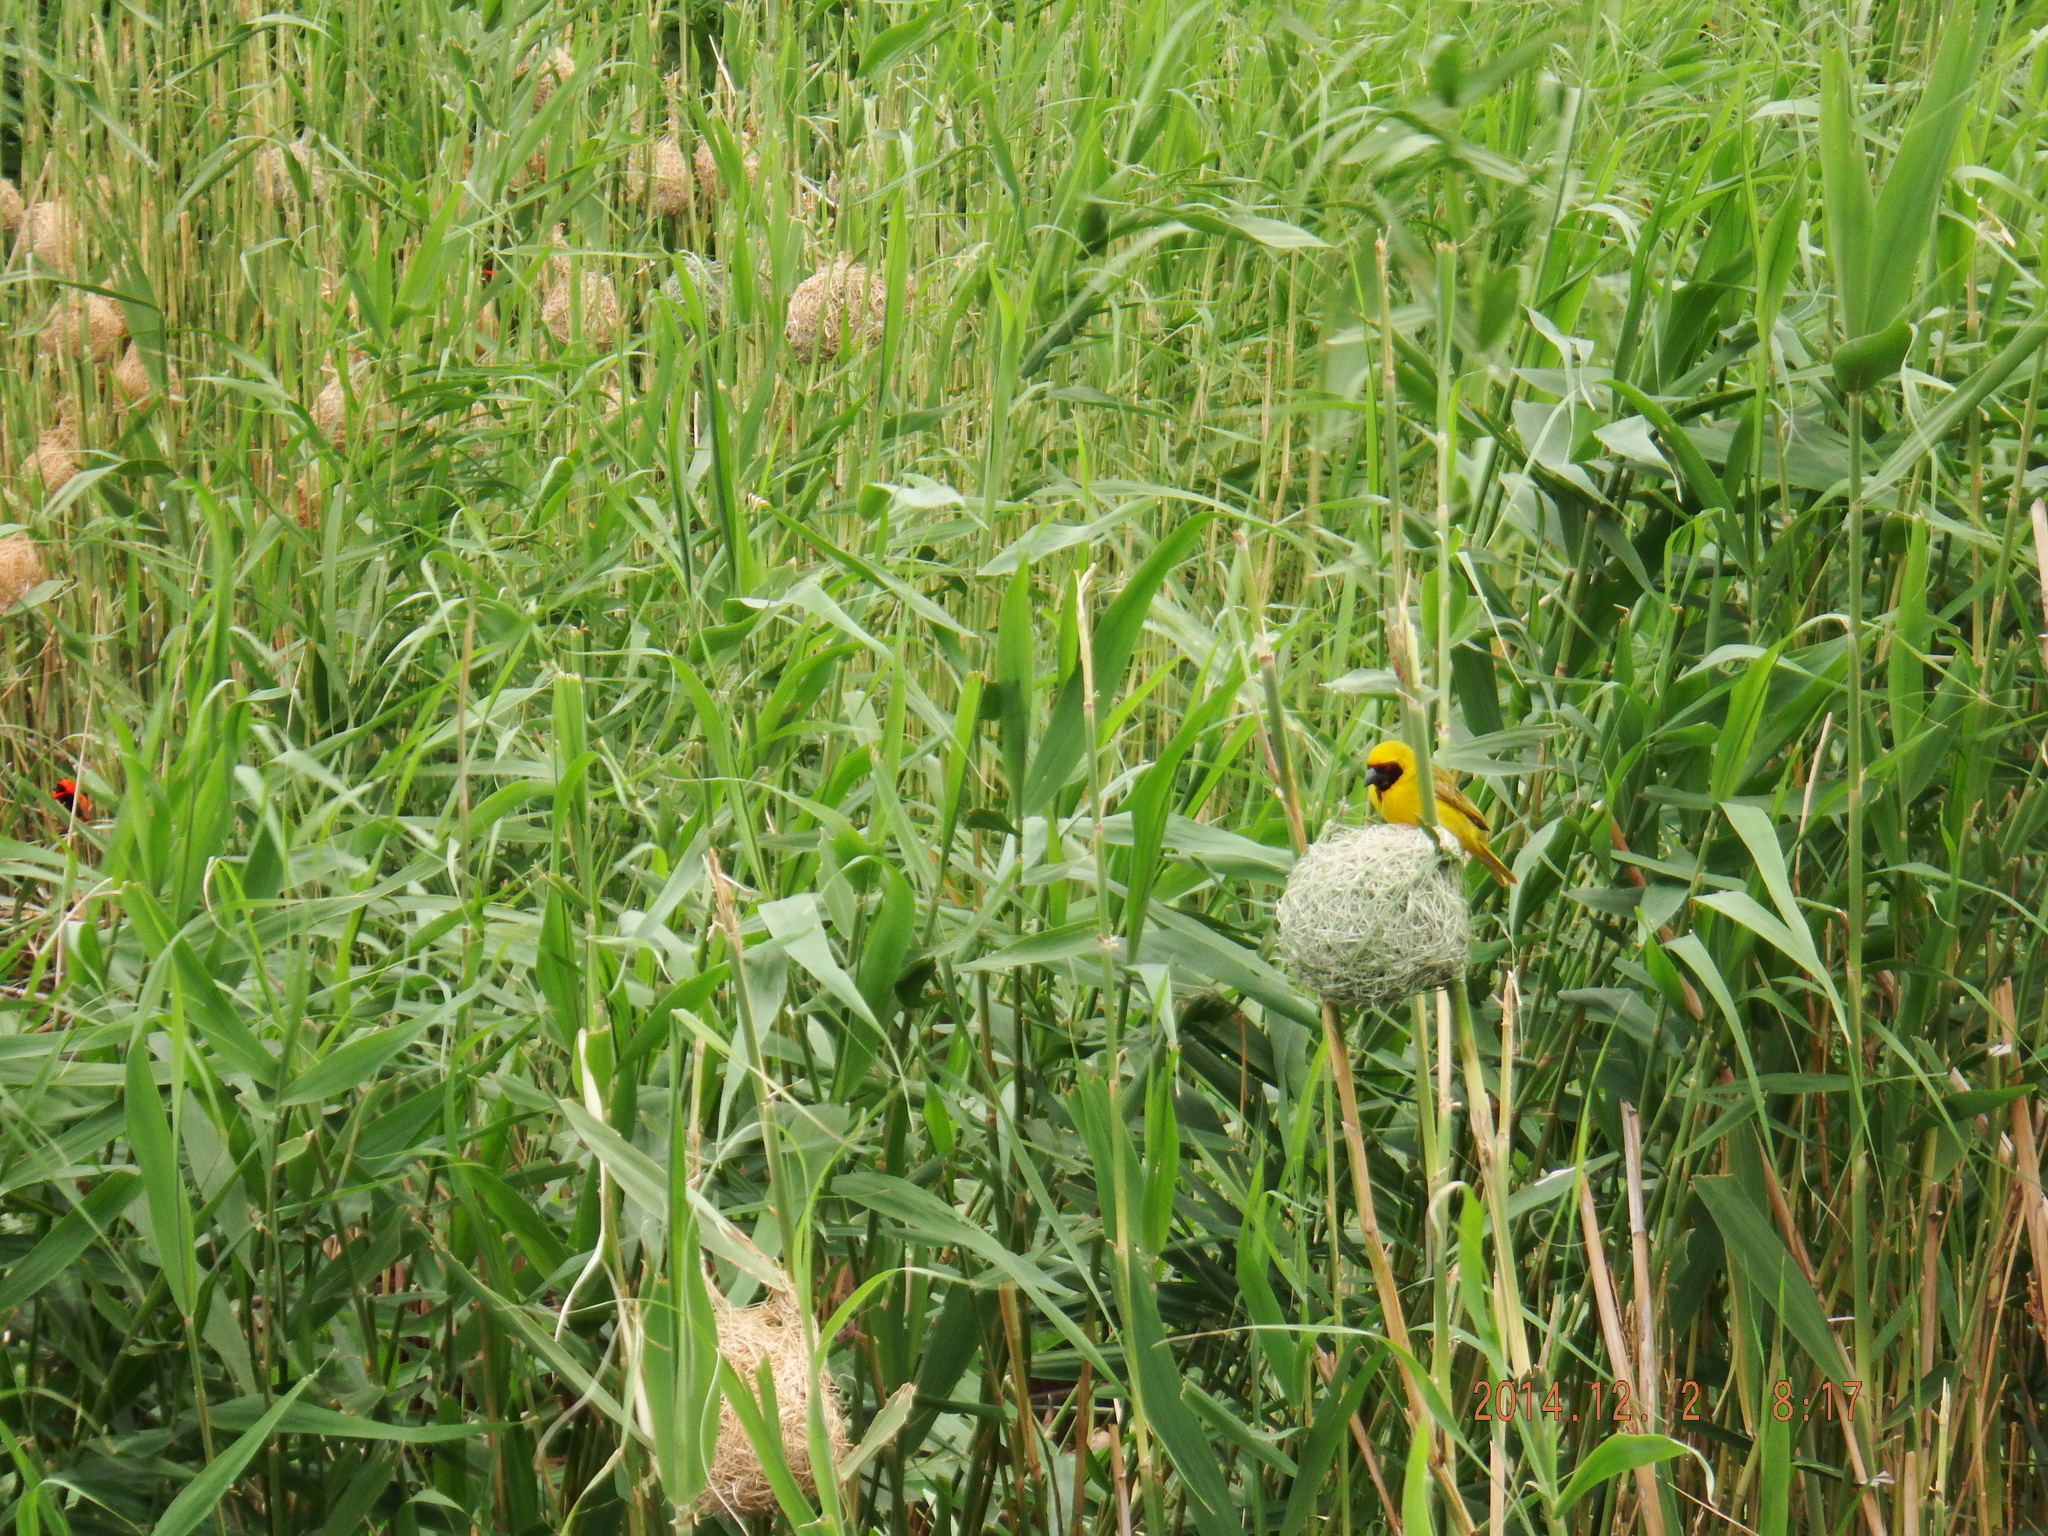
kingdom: Animalia
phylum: Chordata
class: Aves
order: Passeriformes
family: Ploceidae
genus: Ploceus
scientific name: Ploceus velatus
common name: Southern masked weaver
